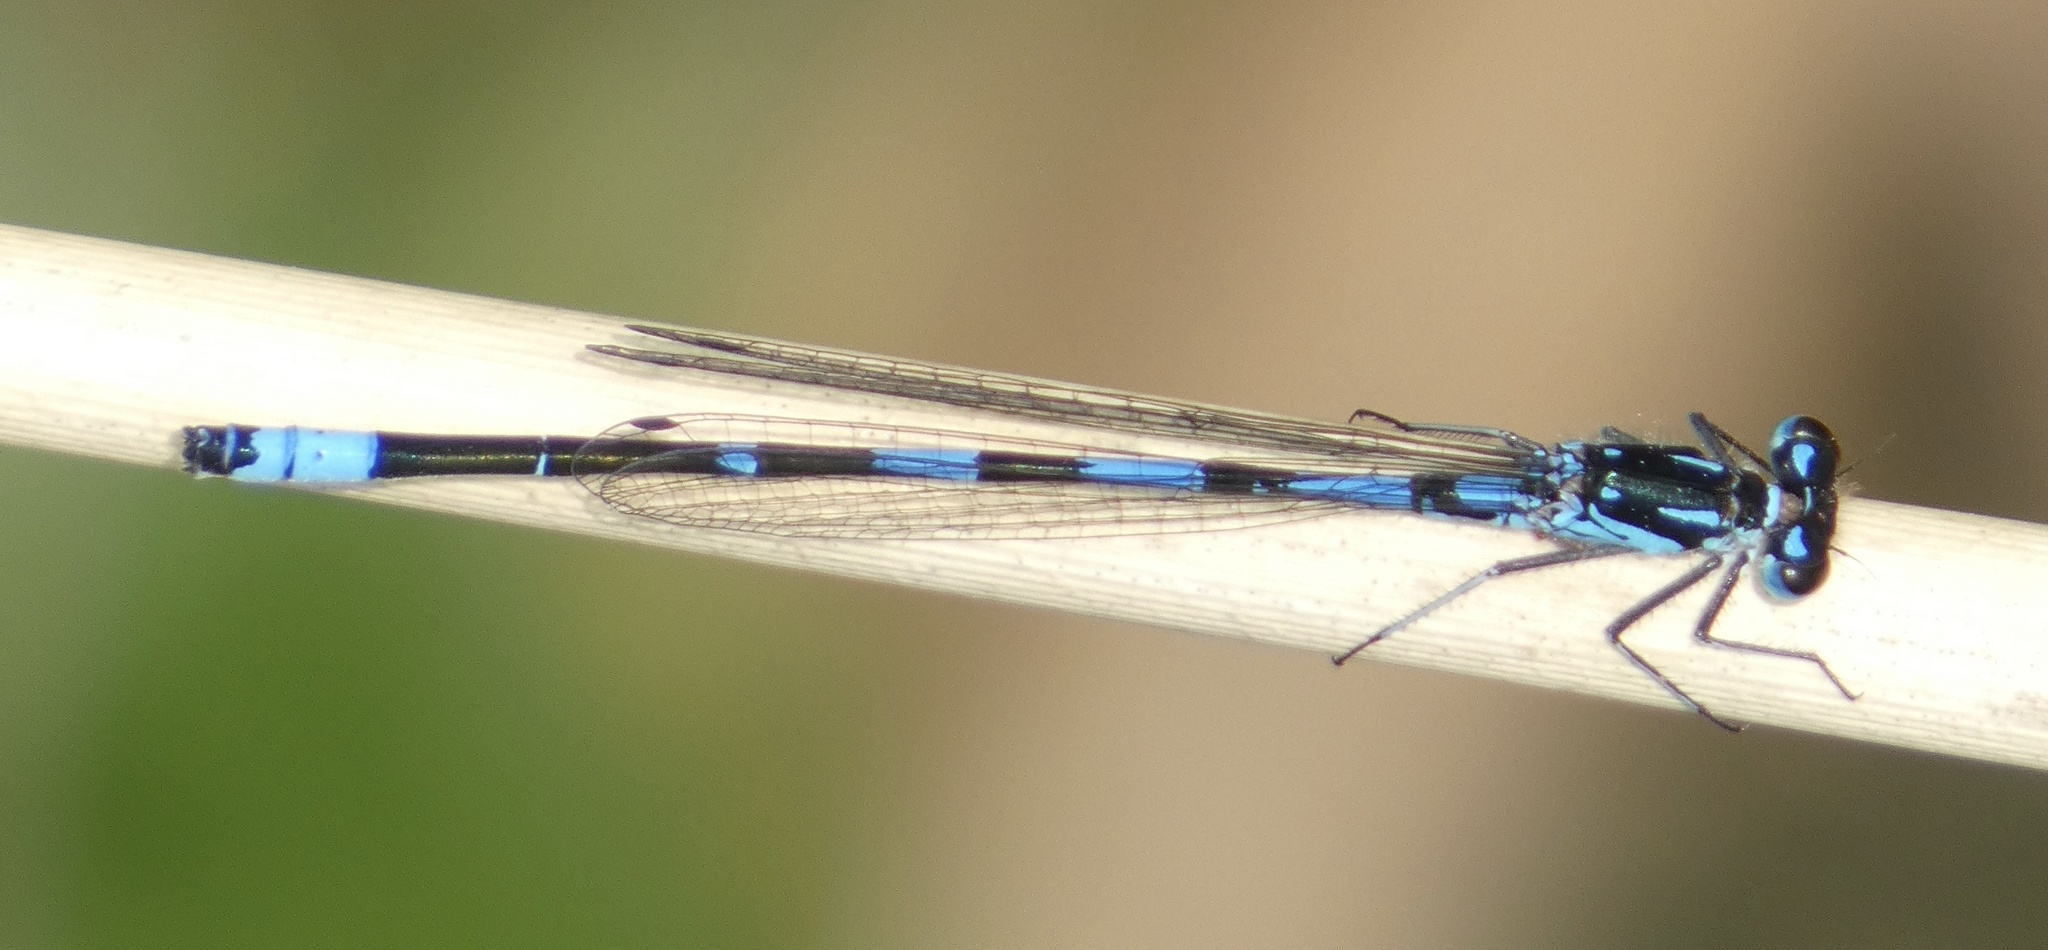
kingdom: Animalia
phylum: Arthropoda
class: Insecta
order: Odonata
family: Coenagrionidae
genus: Coenagrion
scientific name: Coenagrion pulchellum
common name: Variable bluet
